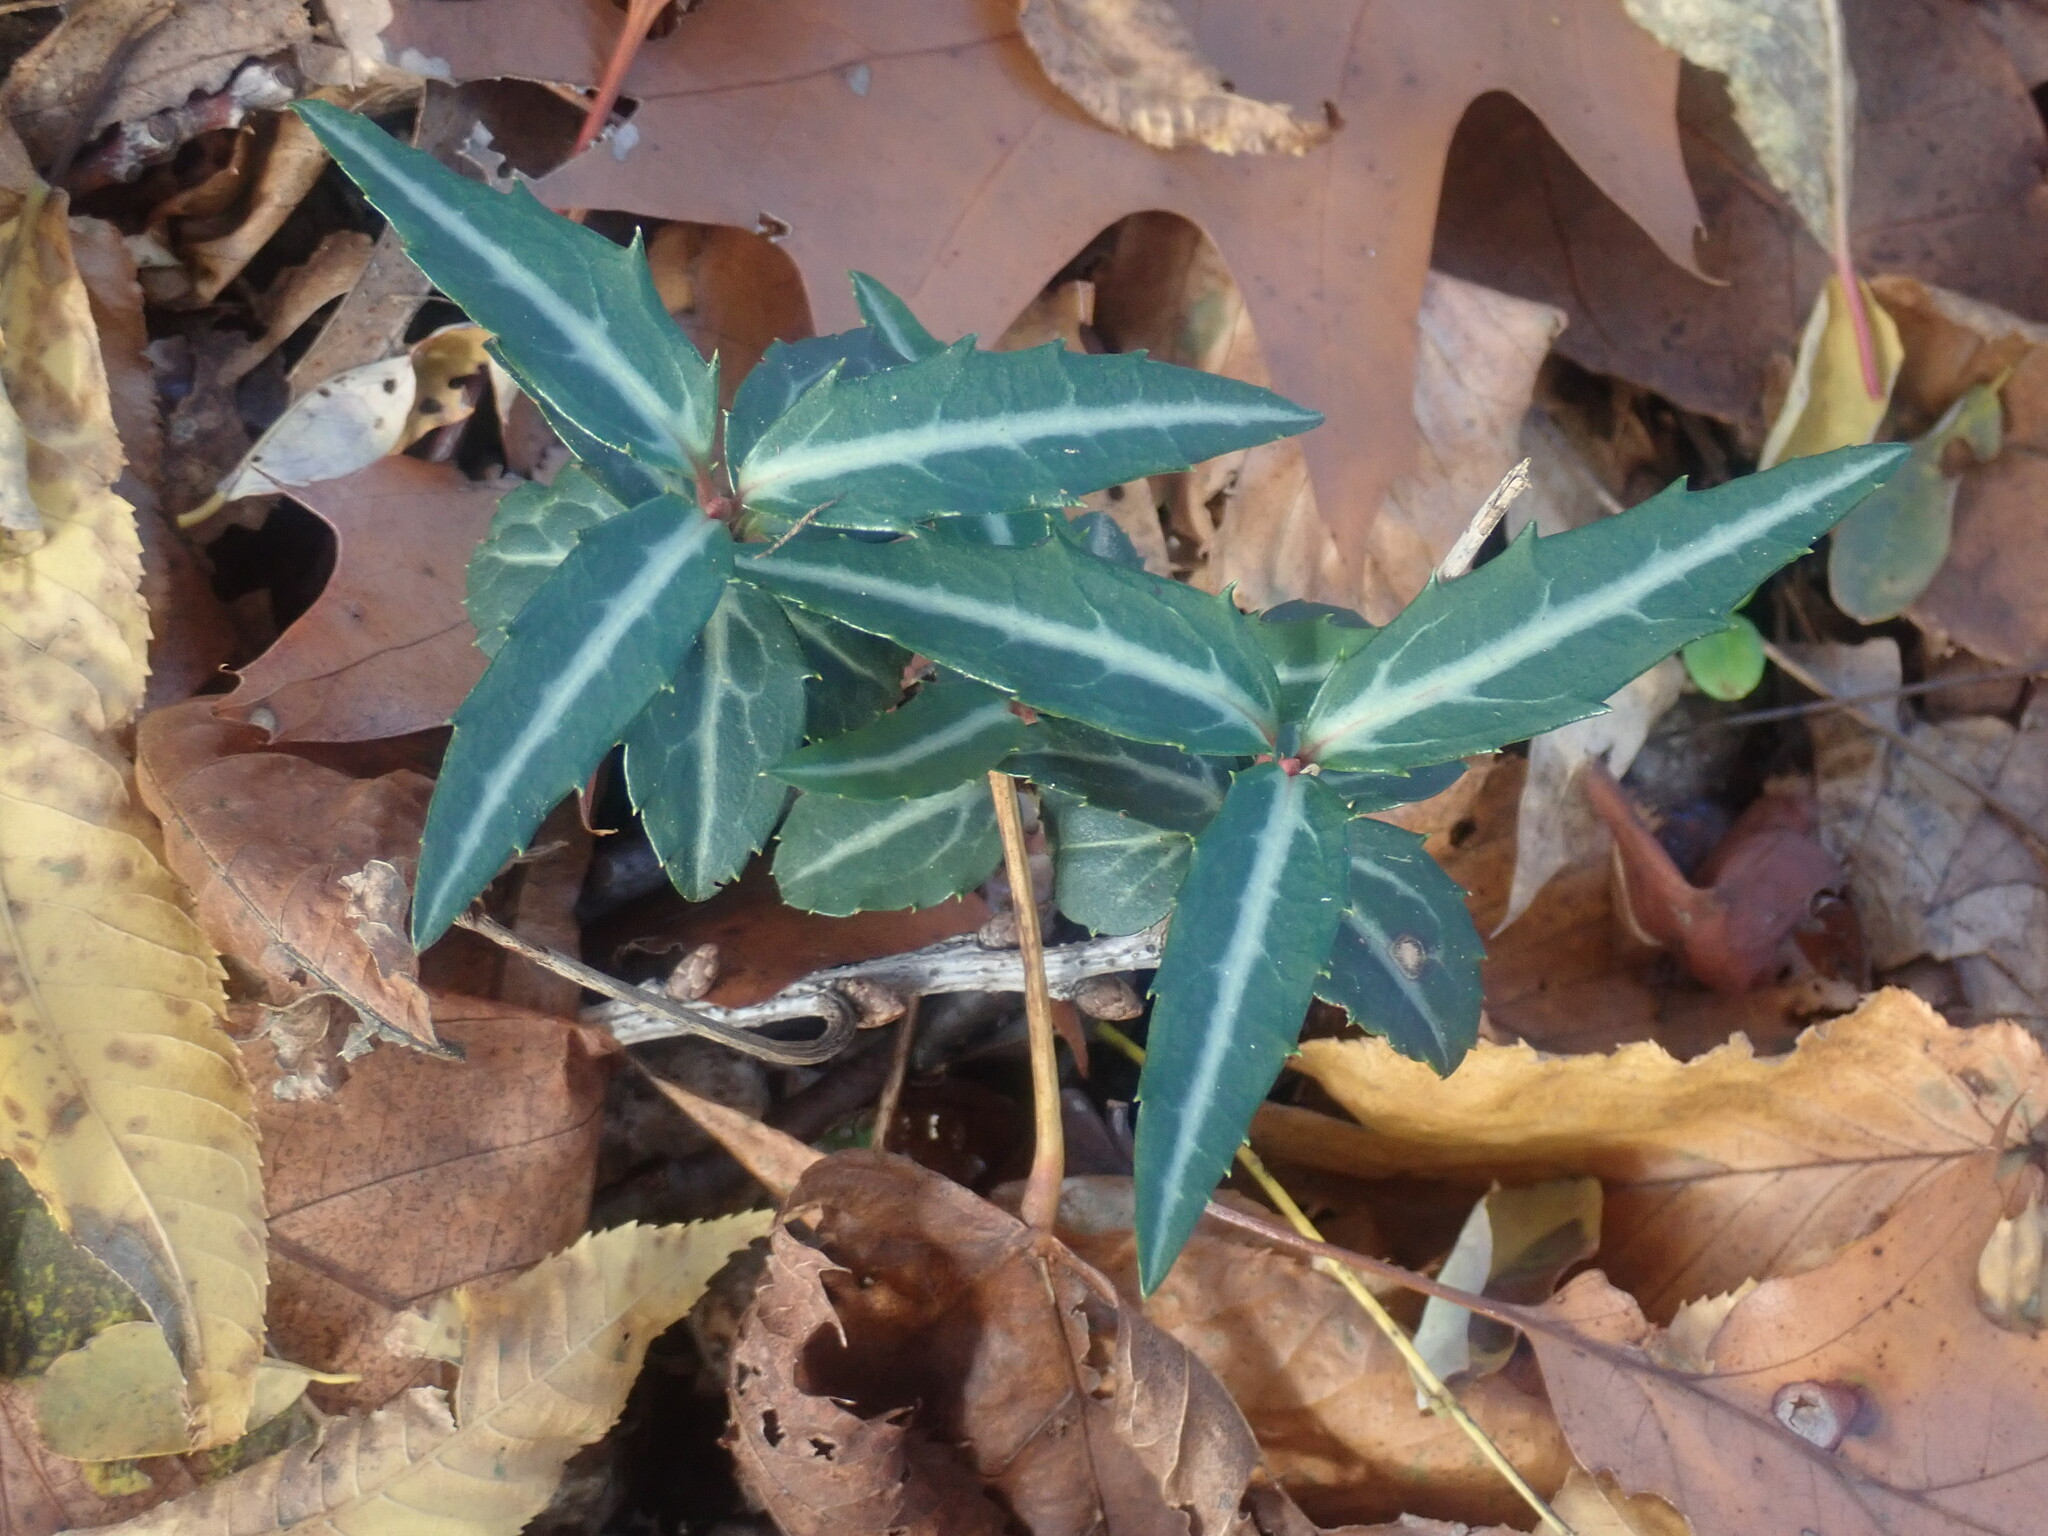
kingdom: Plantae
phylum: Tracheophyta
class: Magnoliopsida
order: Ericales
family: Ericaceae
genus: Chimaphila
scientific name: Chimaphila maculata
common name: Spotted pipsissewa
